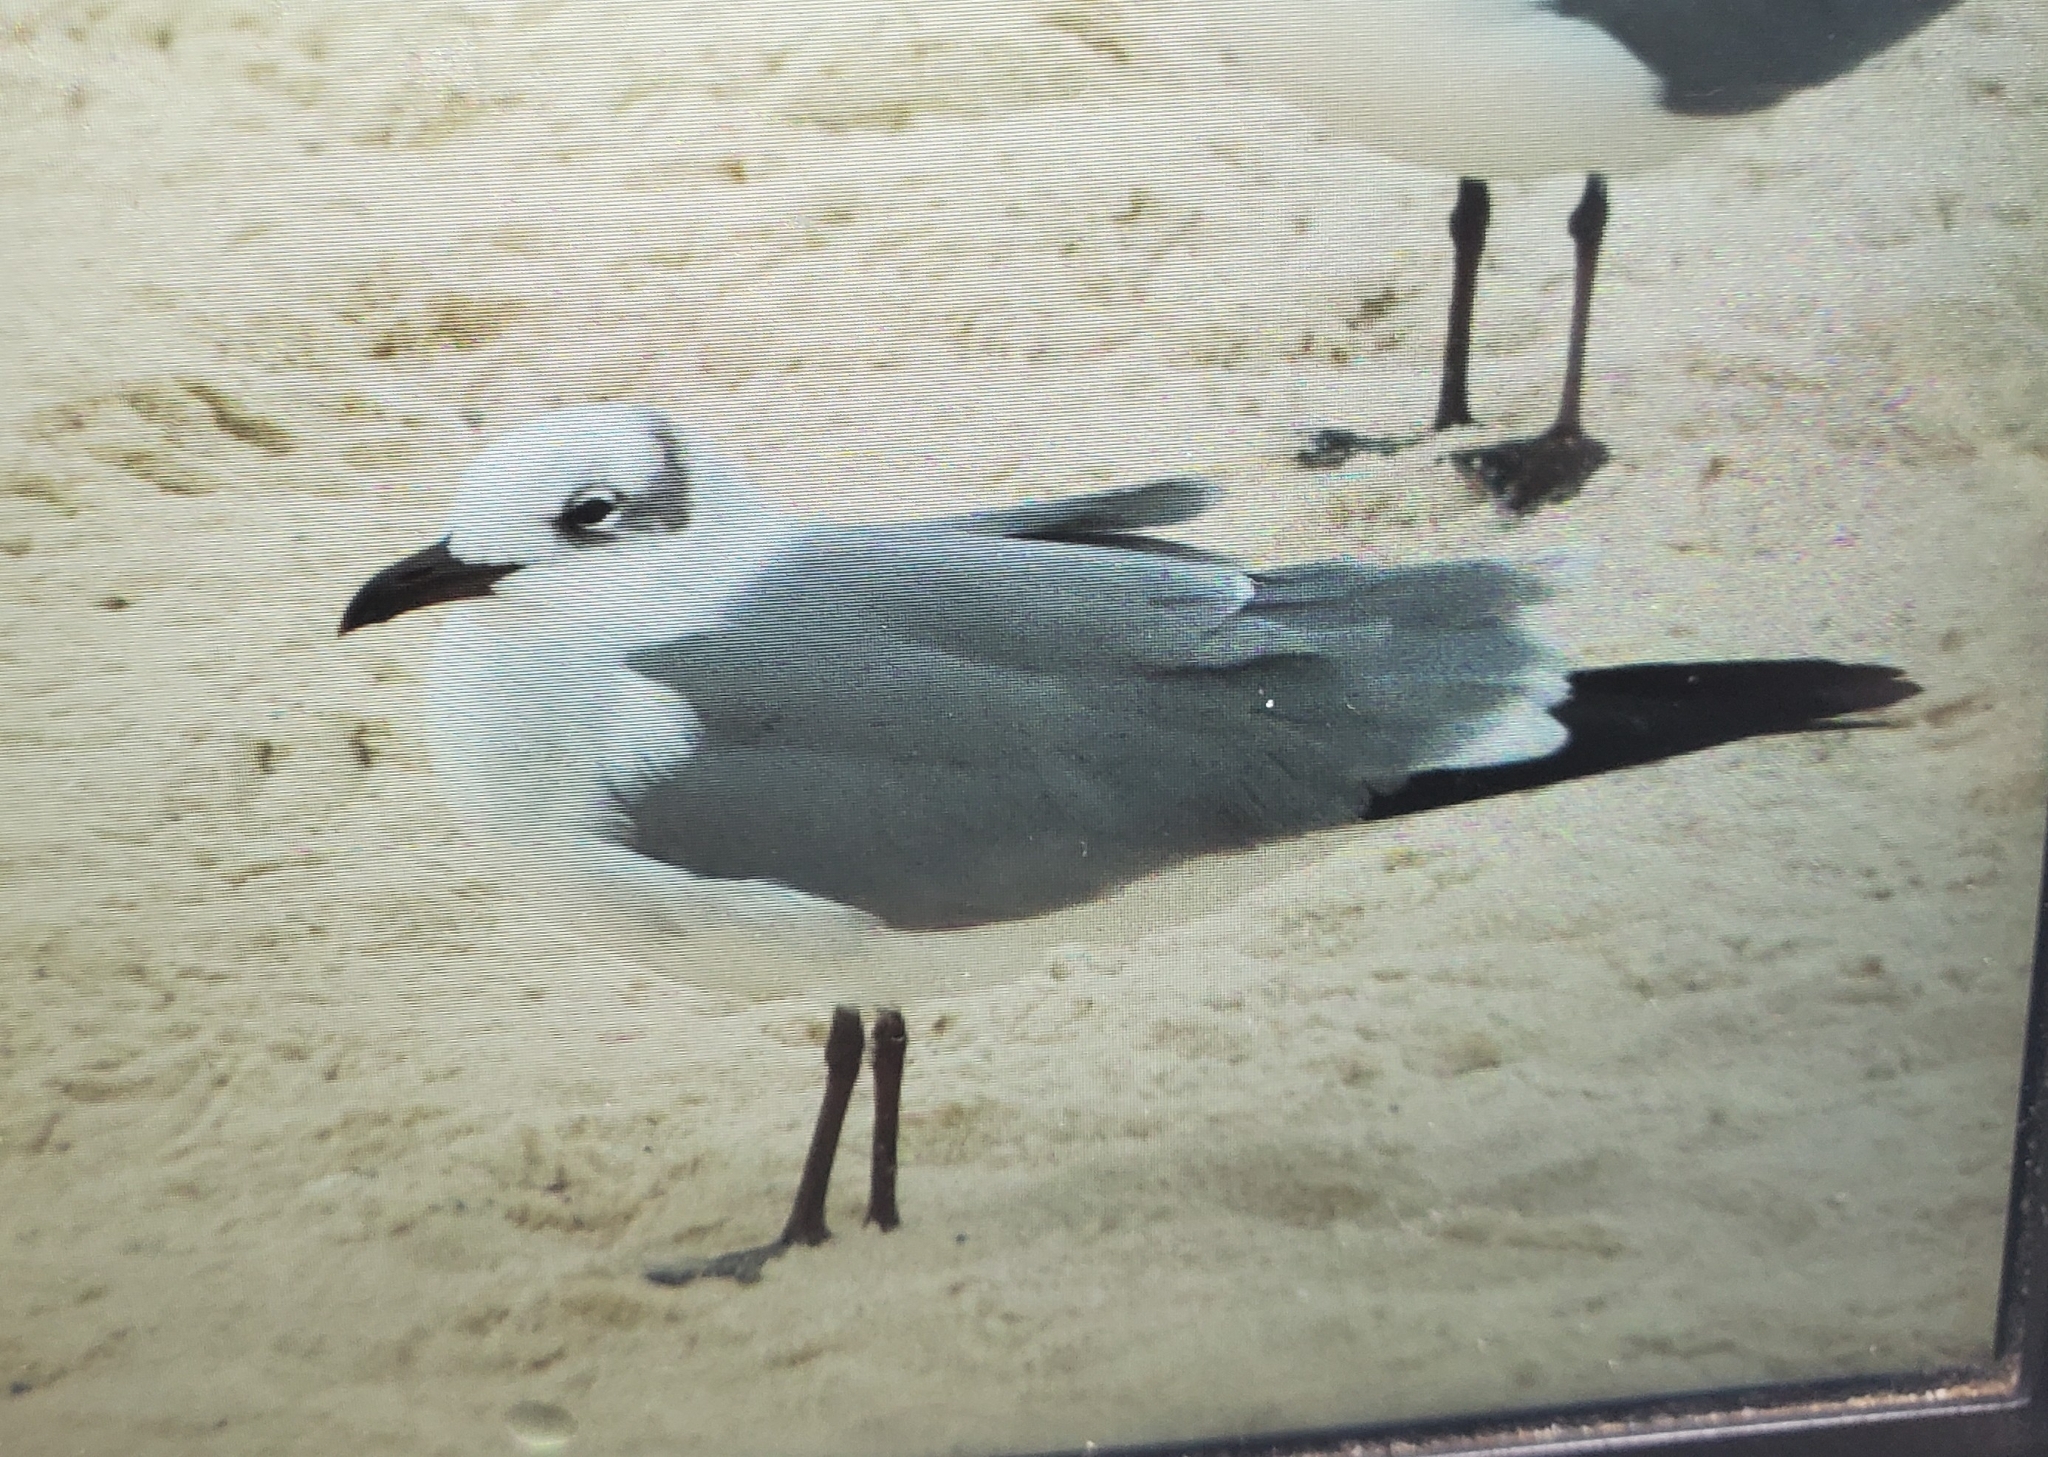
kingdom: Animalia
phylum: Chordata
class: Aves
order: Charadriiformes
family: Laridae
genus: Leucophaeus
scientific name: Leucophaeus atricilla
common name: Laughing gull
